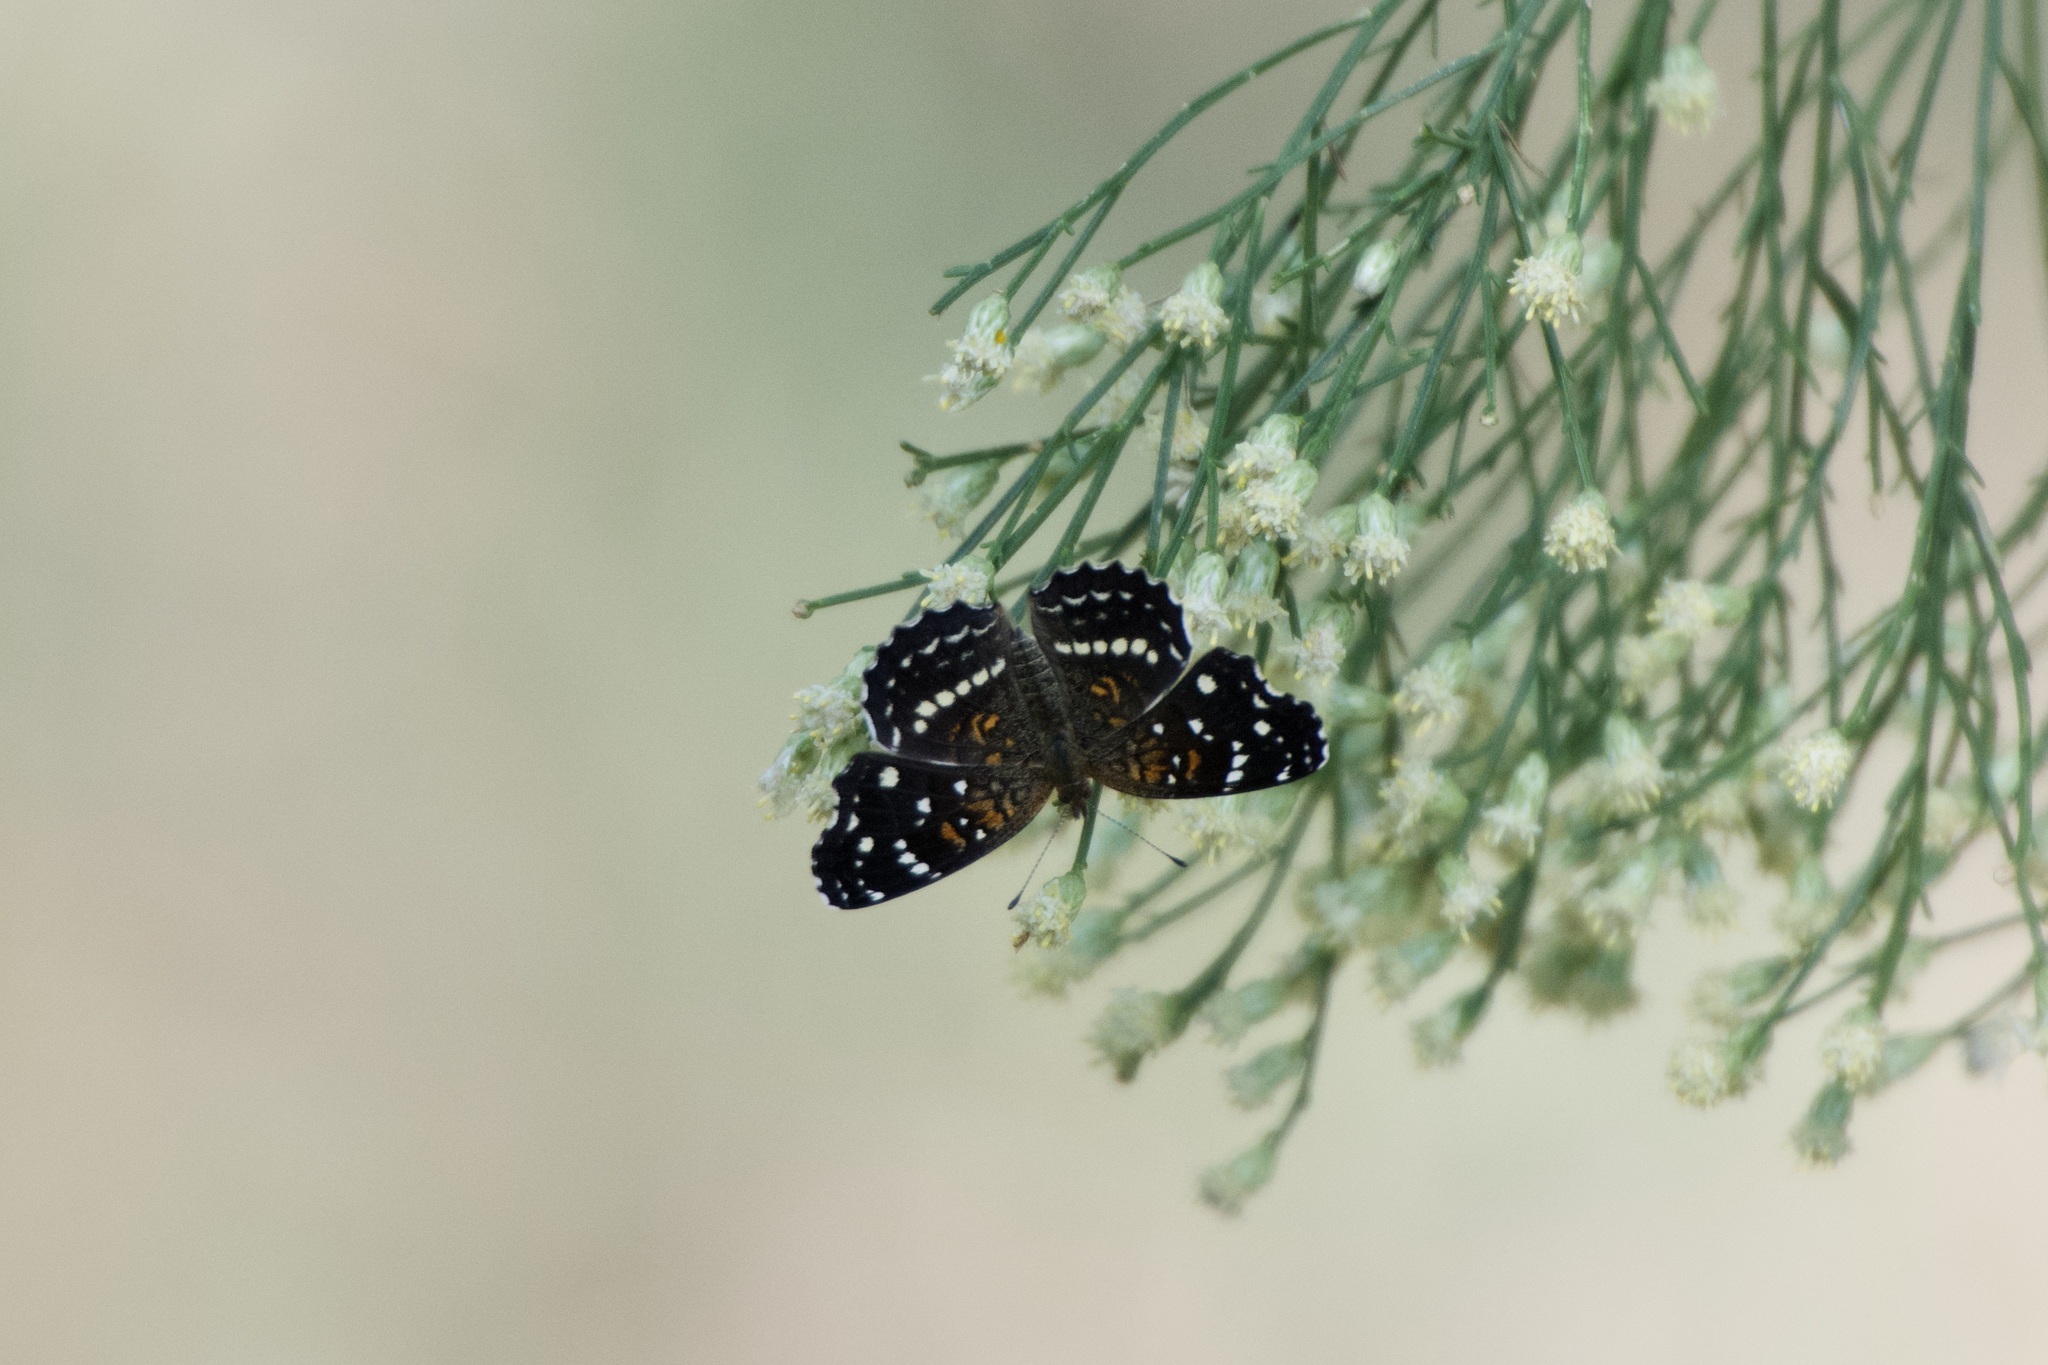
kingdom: Animalia
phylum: Arthropoda
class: Insecta
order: Lepidoptera
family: Nymphalidae
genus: Anthanassa
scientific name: Anthanassa texana
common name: Texan crescent
